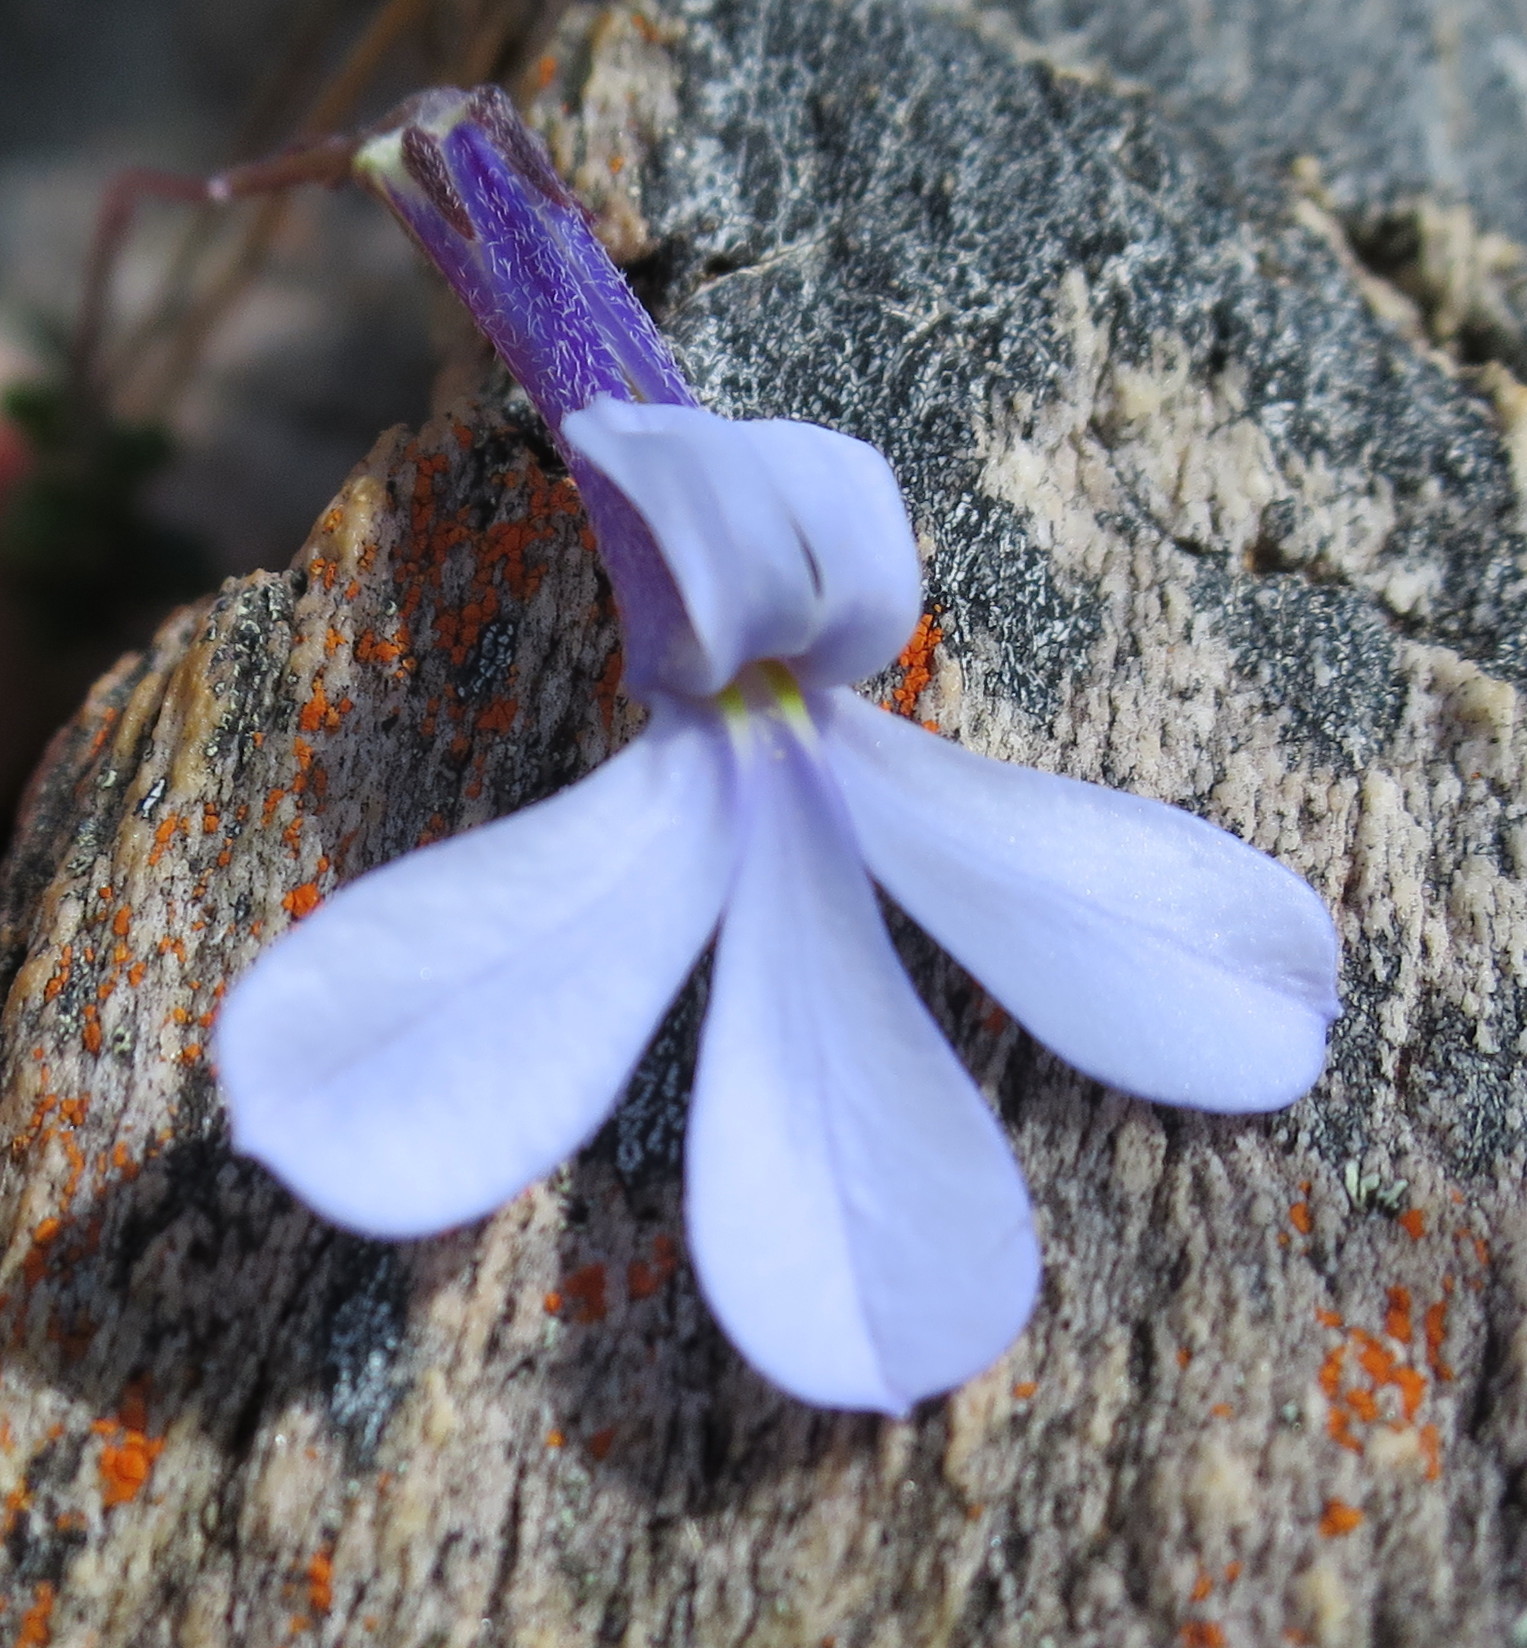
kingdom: Plantae
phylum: Tracheophyta
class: Magnoliopsida
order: Asterales
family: Campanulaceae
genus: Lobelia
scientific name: Lobelia dichroma
